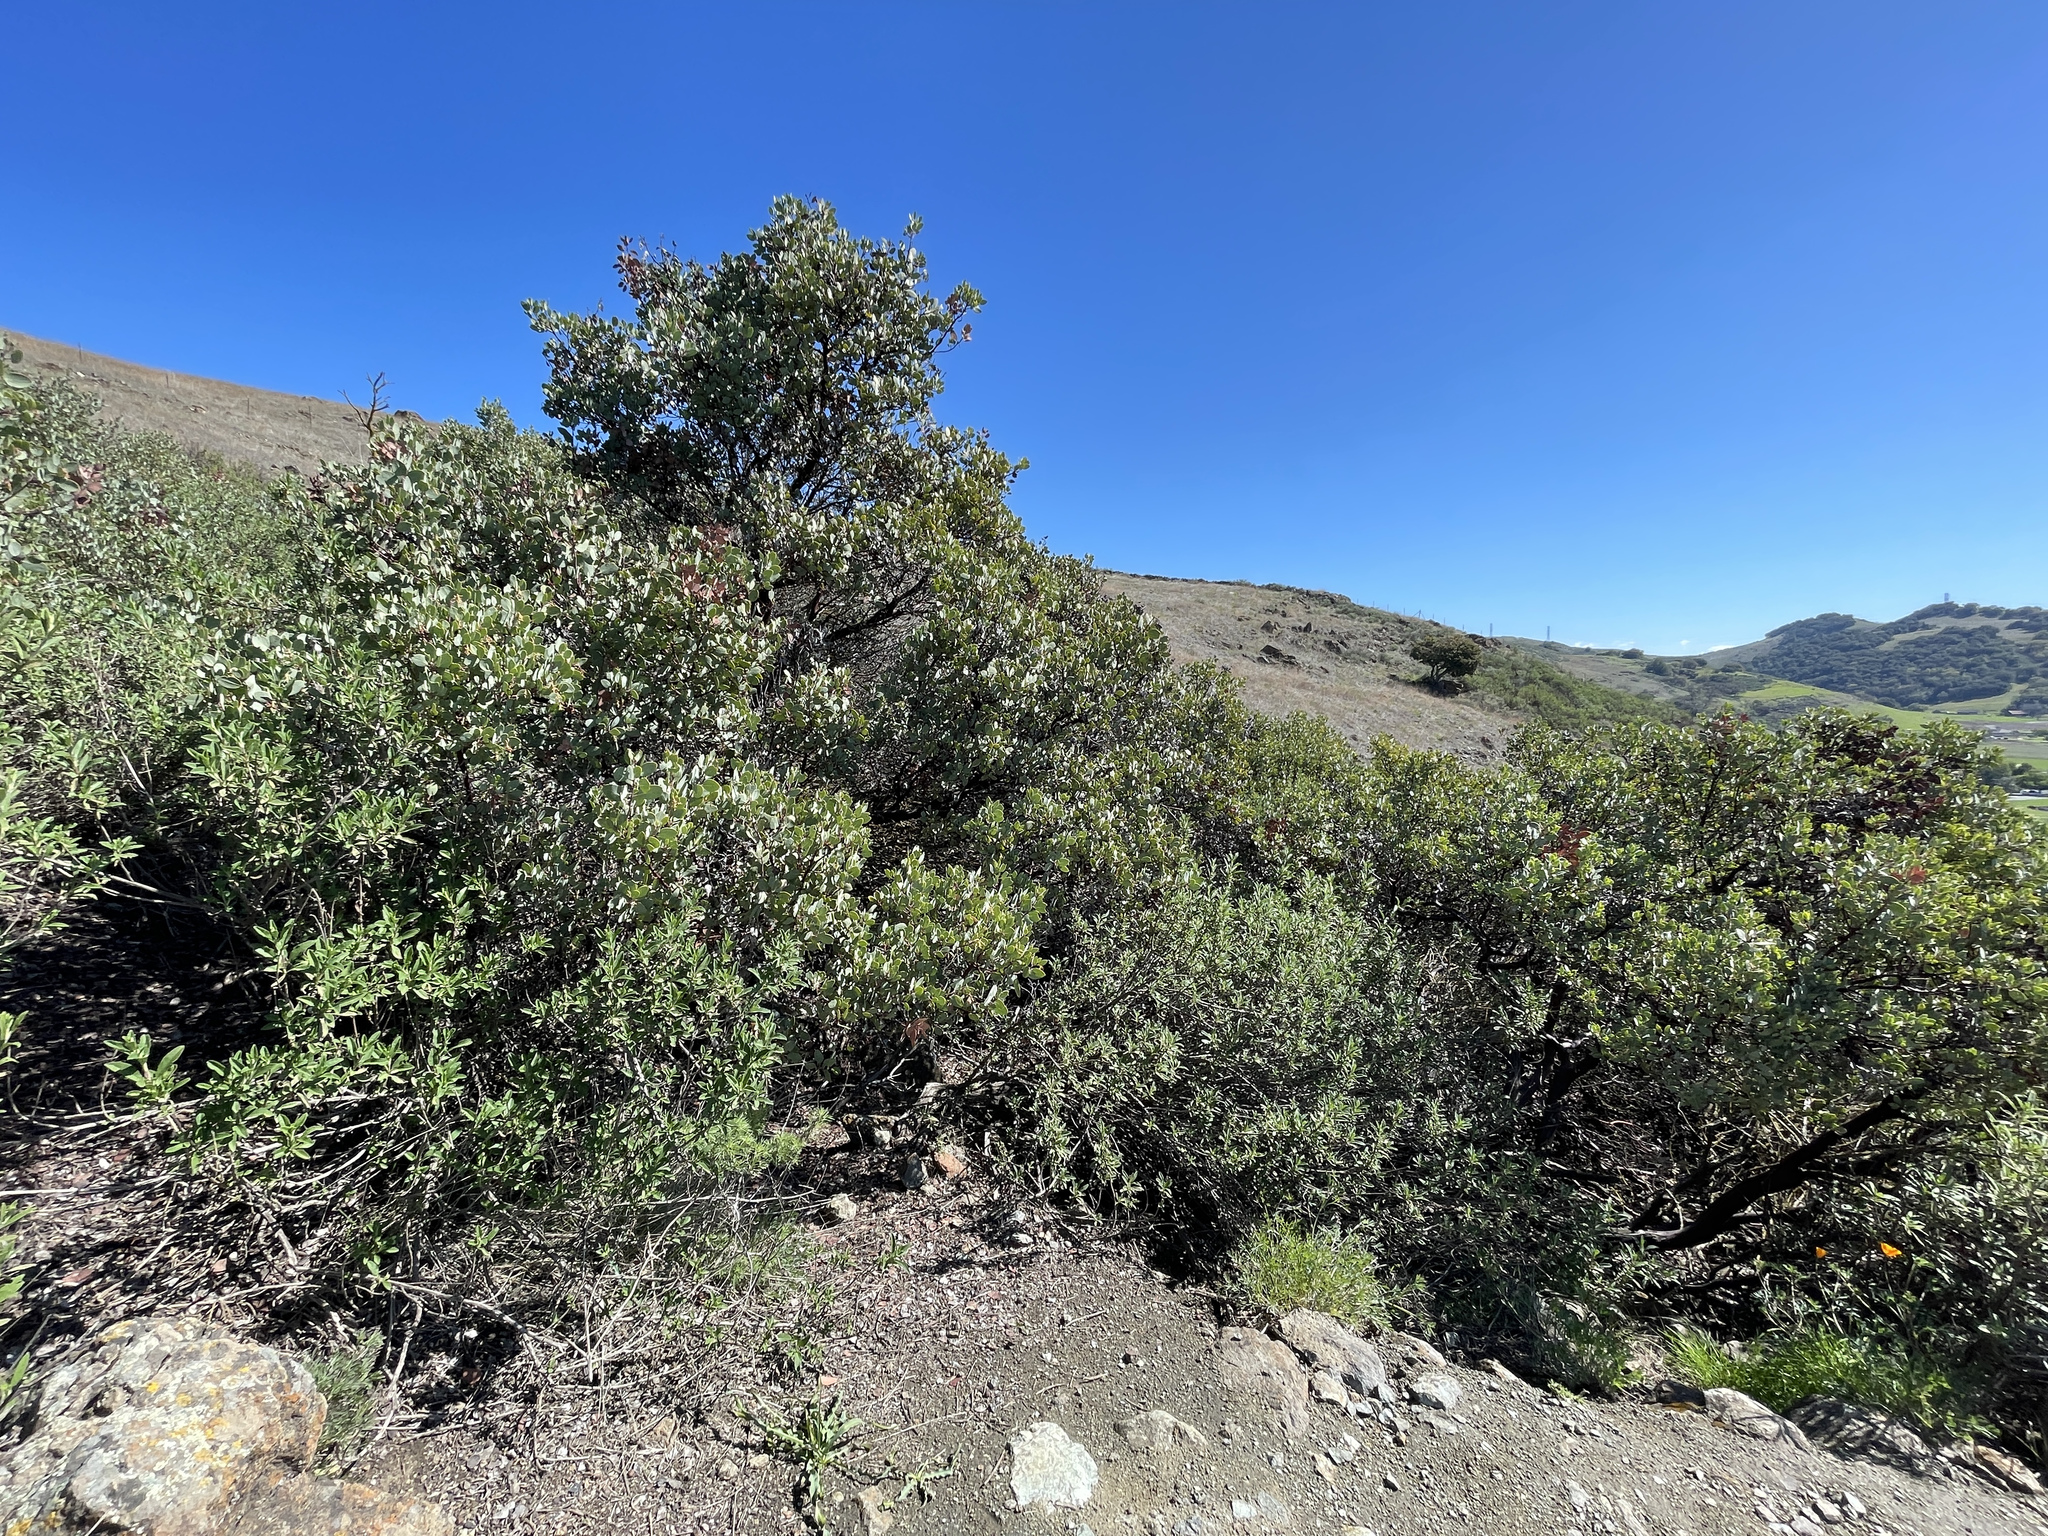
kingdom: Plantae
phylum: Tracheophyta
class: Magnoliopsida
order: Ericales
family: Ericaceae
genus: Arctostaphylos
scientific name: Arctostaphylos glauca
